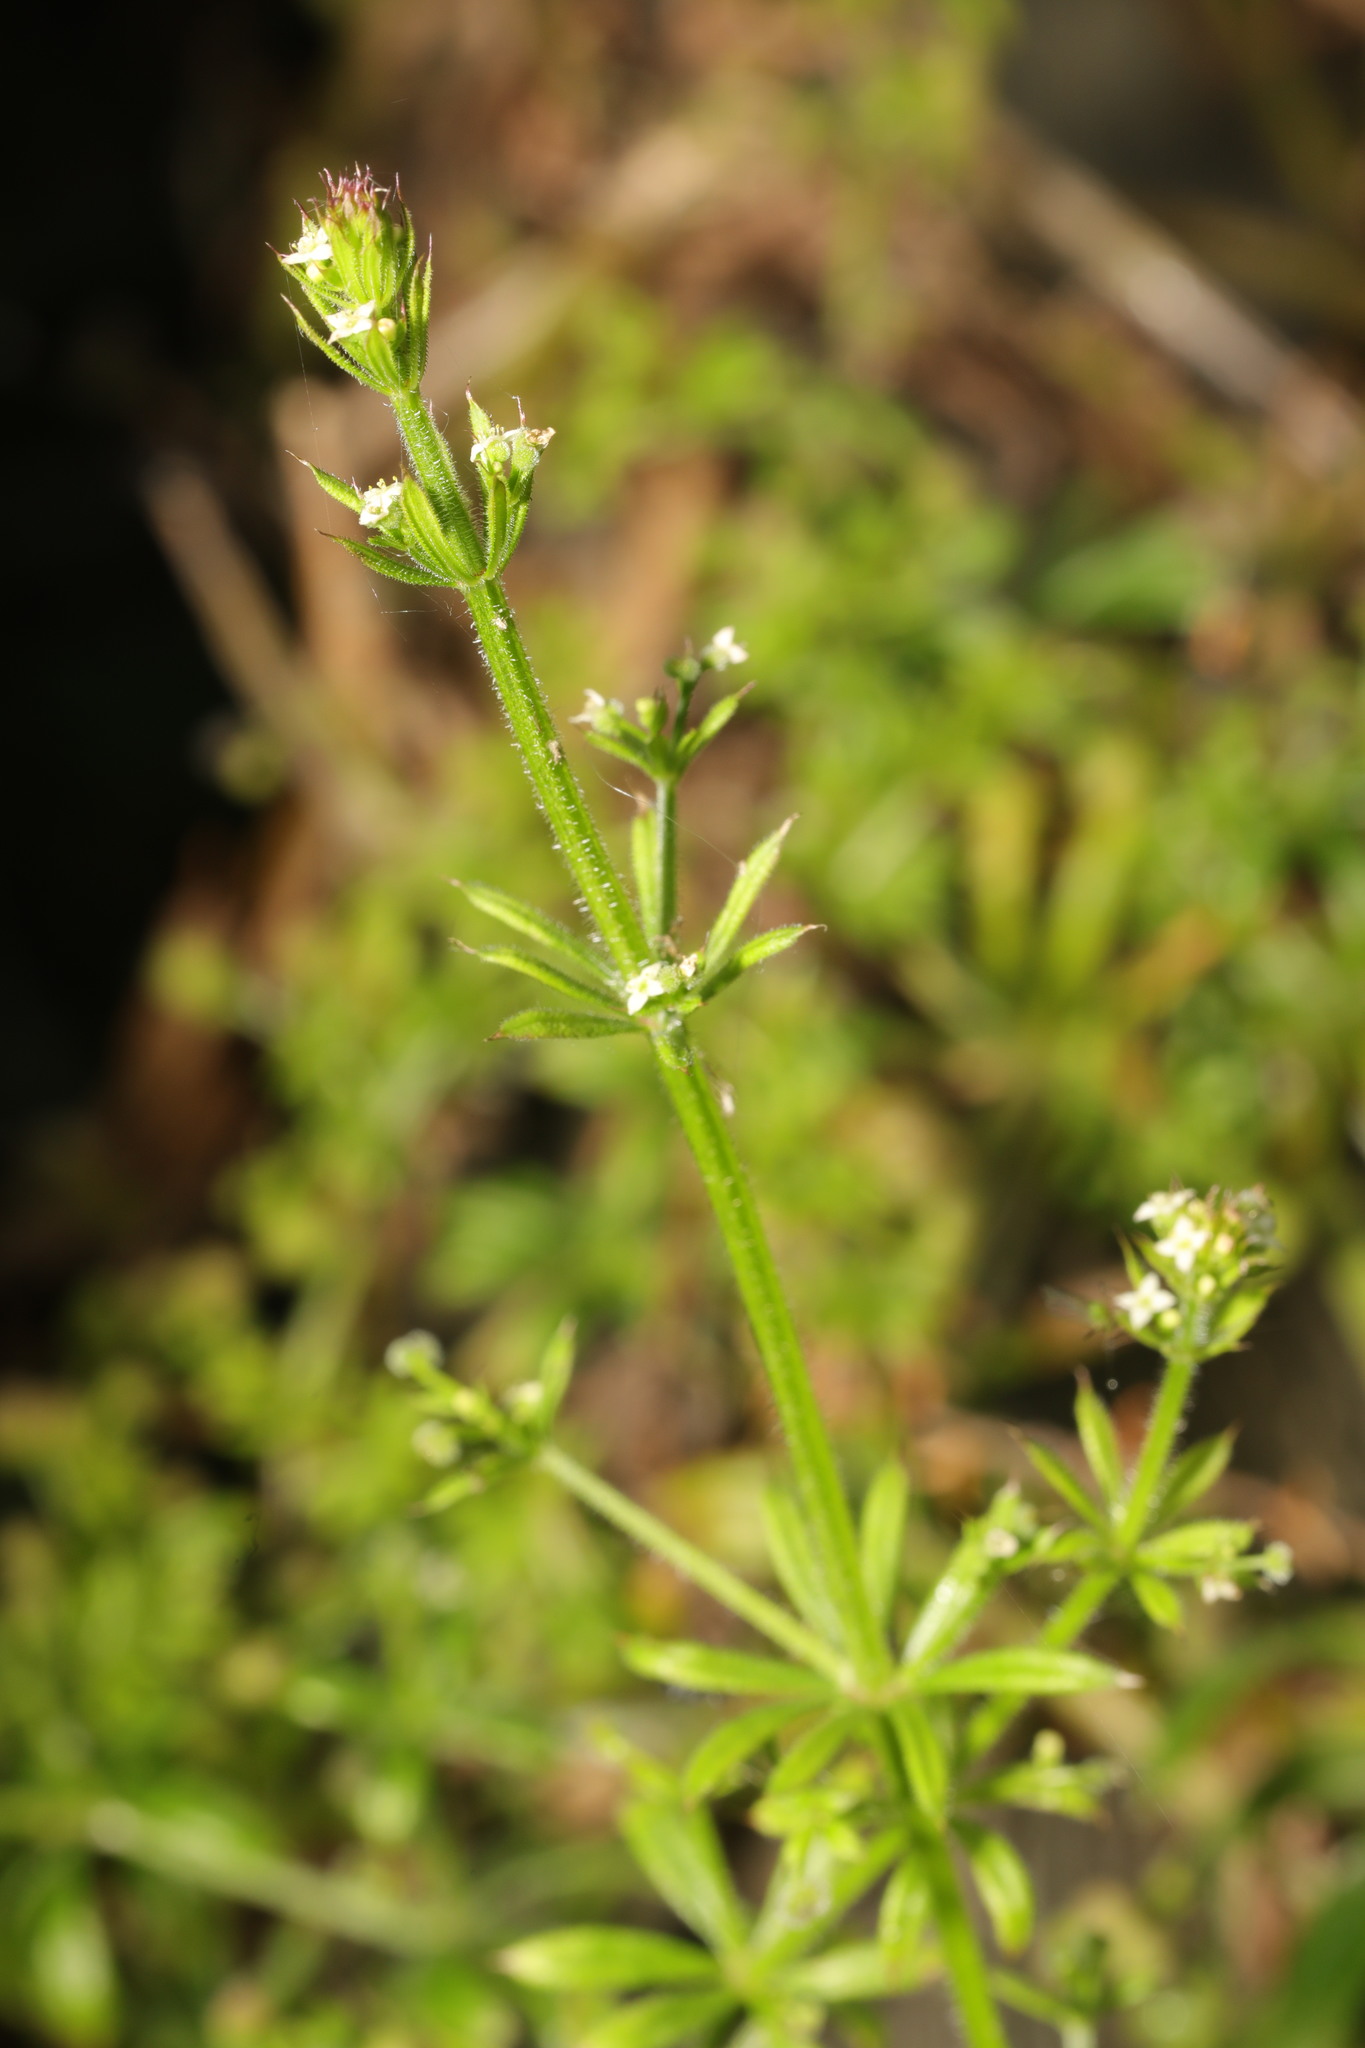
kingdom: Plantae
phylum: Tracheophyta
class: Magnoliopsida
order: Gentianales
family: Rubiaceae
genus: Galium
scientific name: Galium aparine
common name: Cleavers
